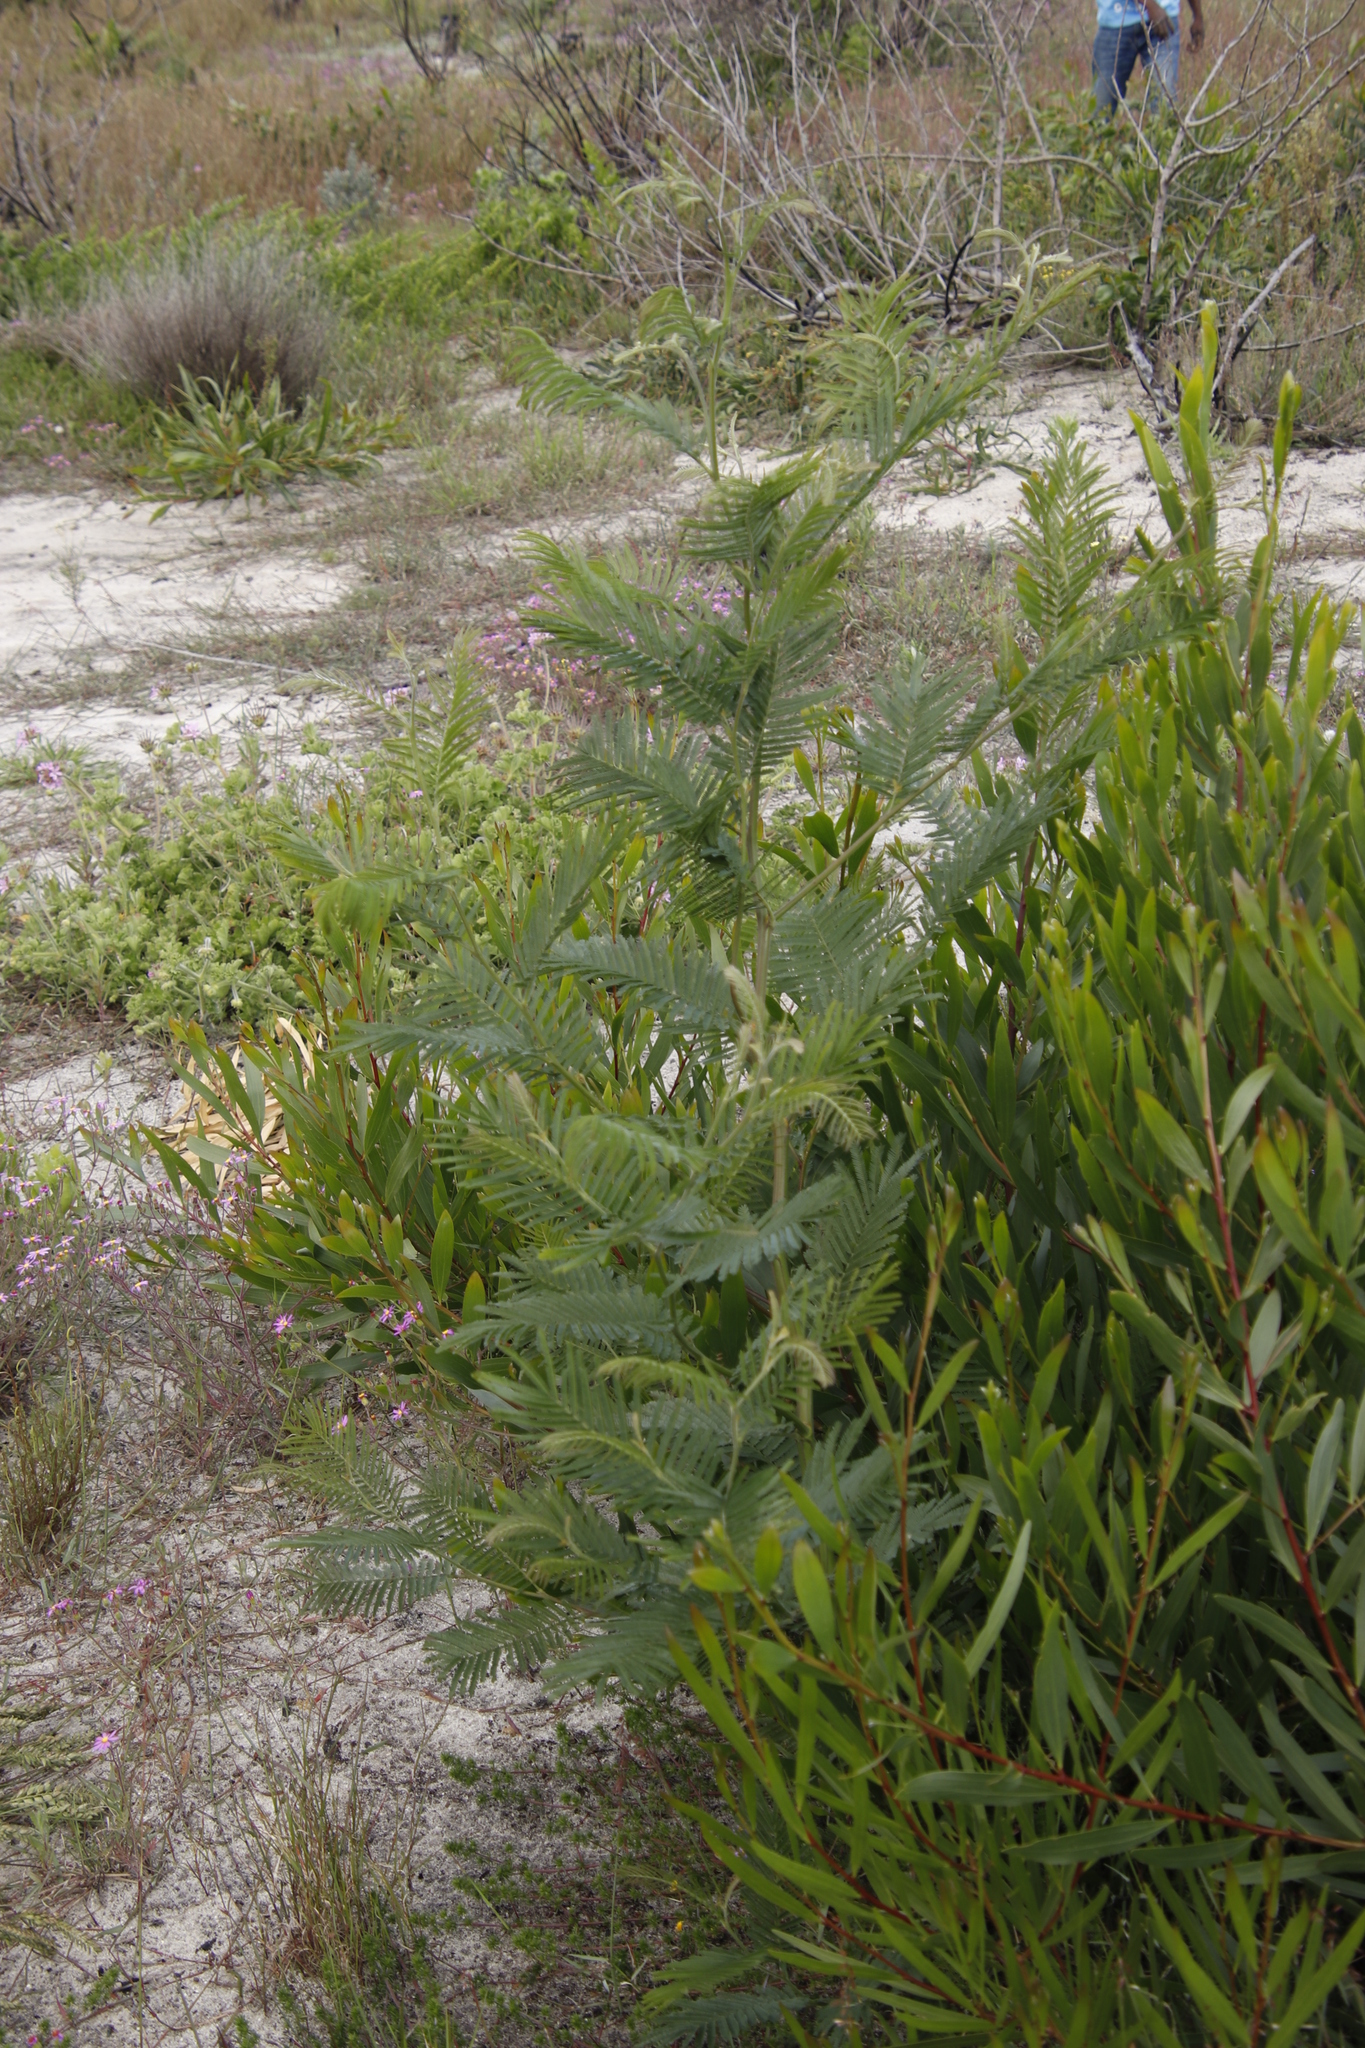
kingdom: Plantae
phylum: Tracheophyta
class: Magnoliopsida
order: Fabales
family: Fabaceae
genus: Acacia
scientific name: Acacia mearnsii
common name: Black wattle
